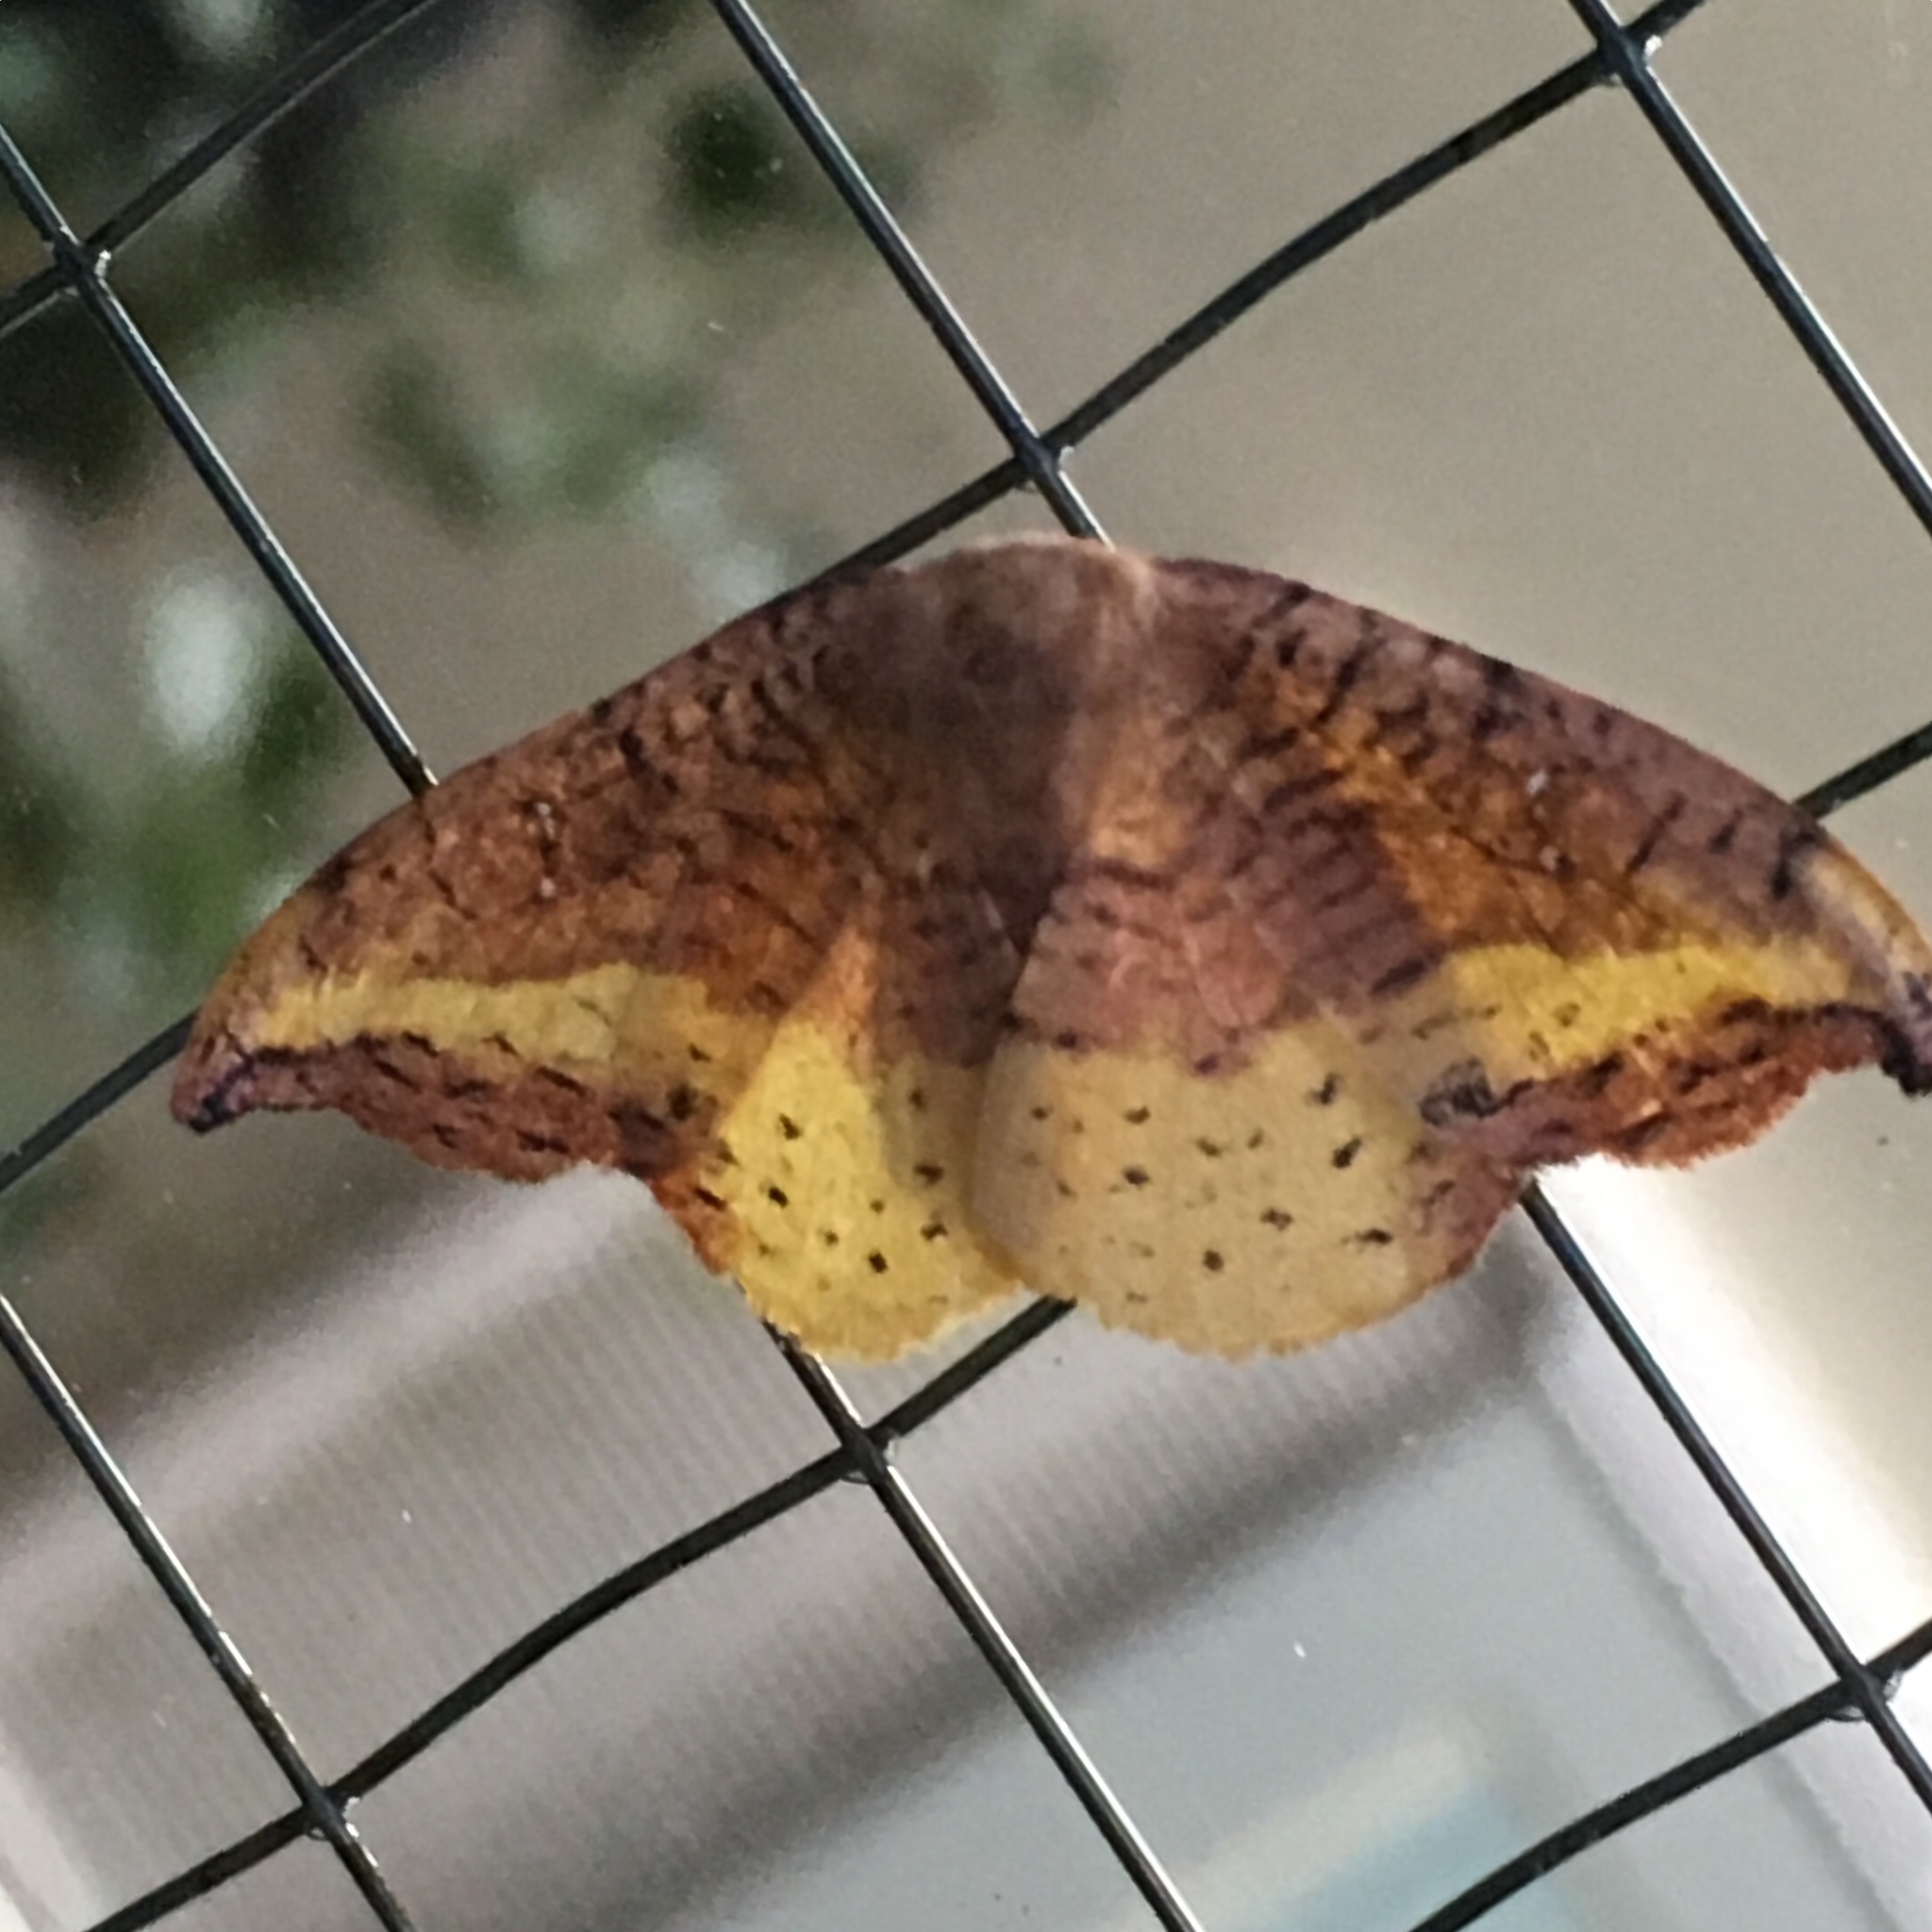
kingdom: Animalia
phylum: Arthropoda
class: Insecta
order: Lepidoptera
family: Drepanidae
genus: Oreta
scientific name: Oreta rosea
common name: Rose hooktip
